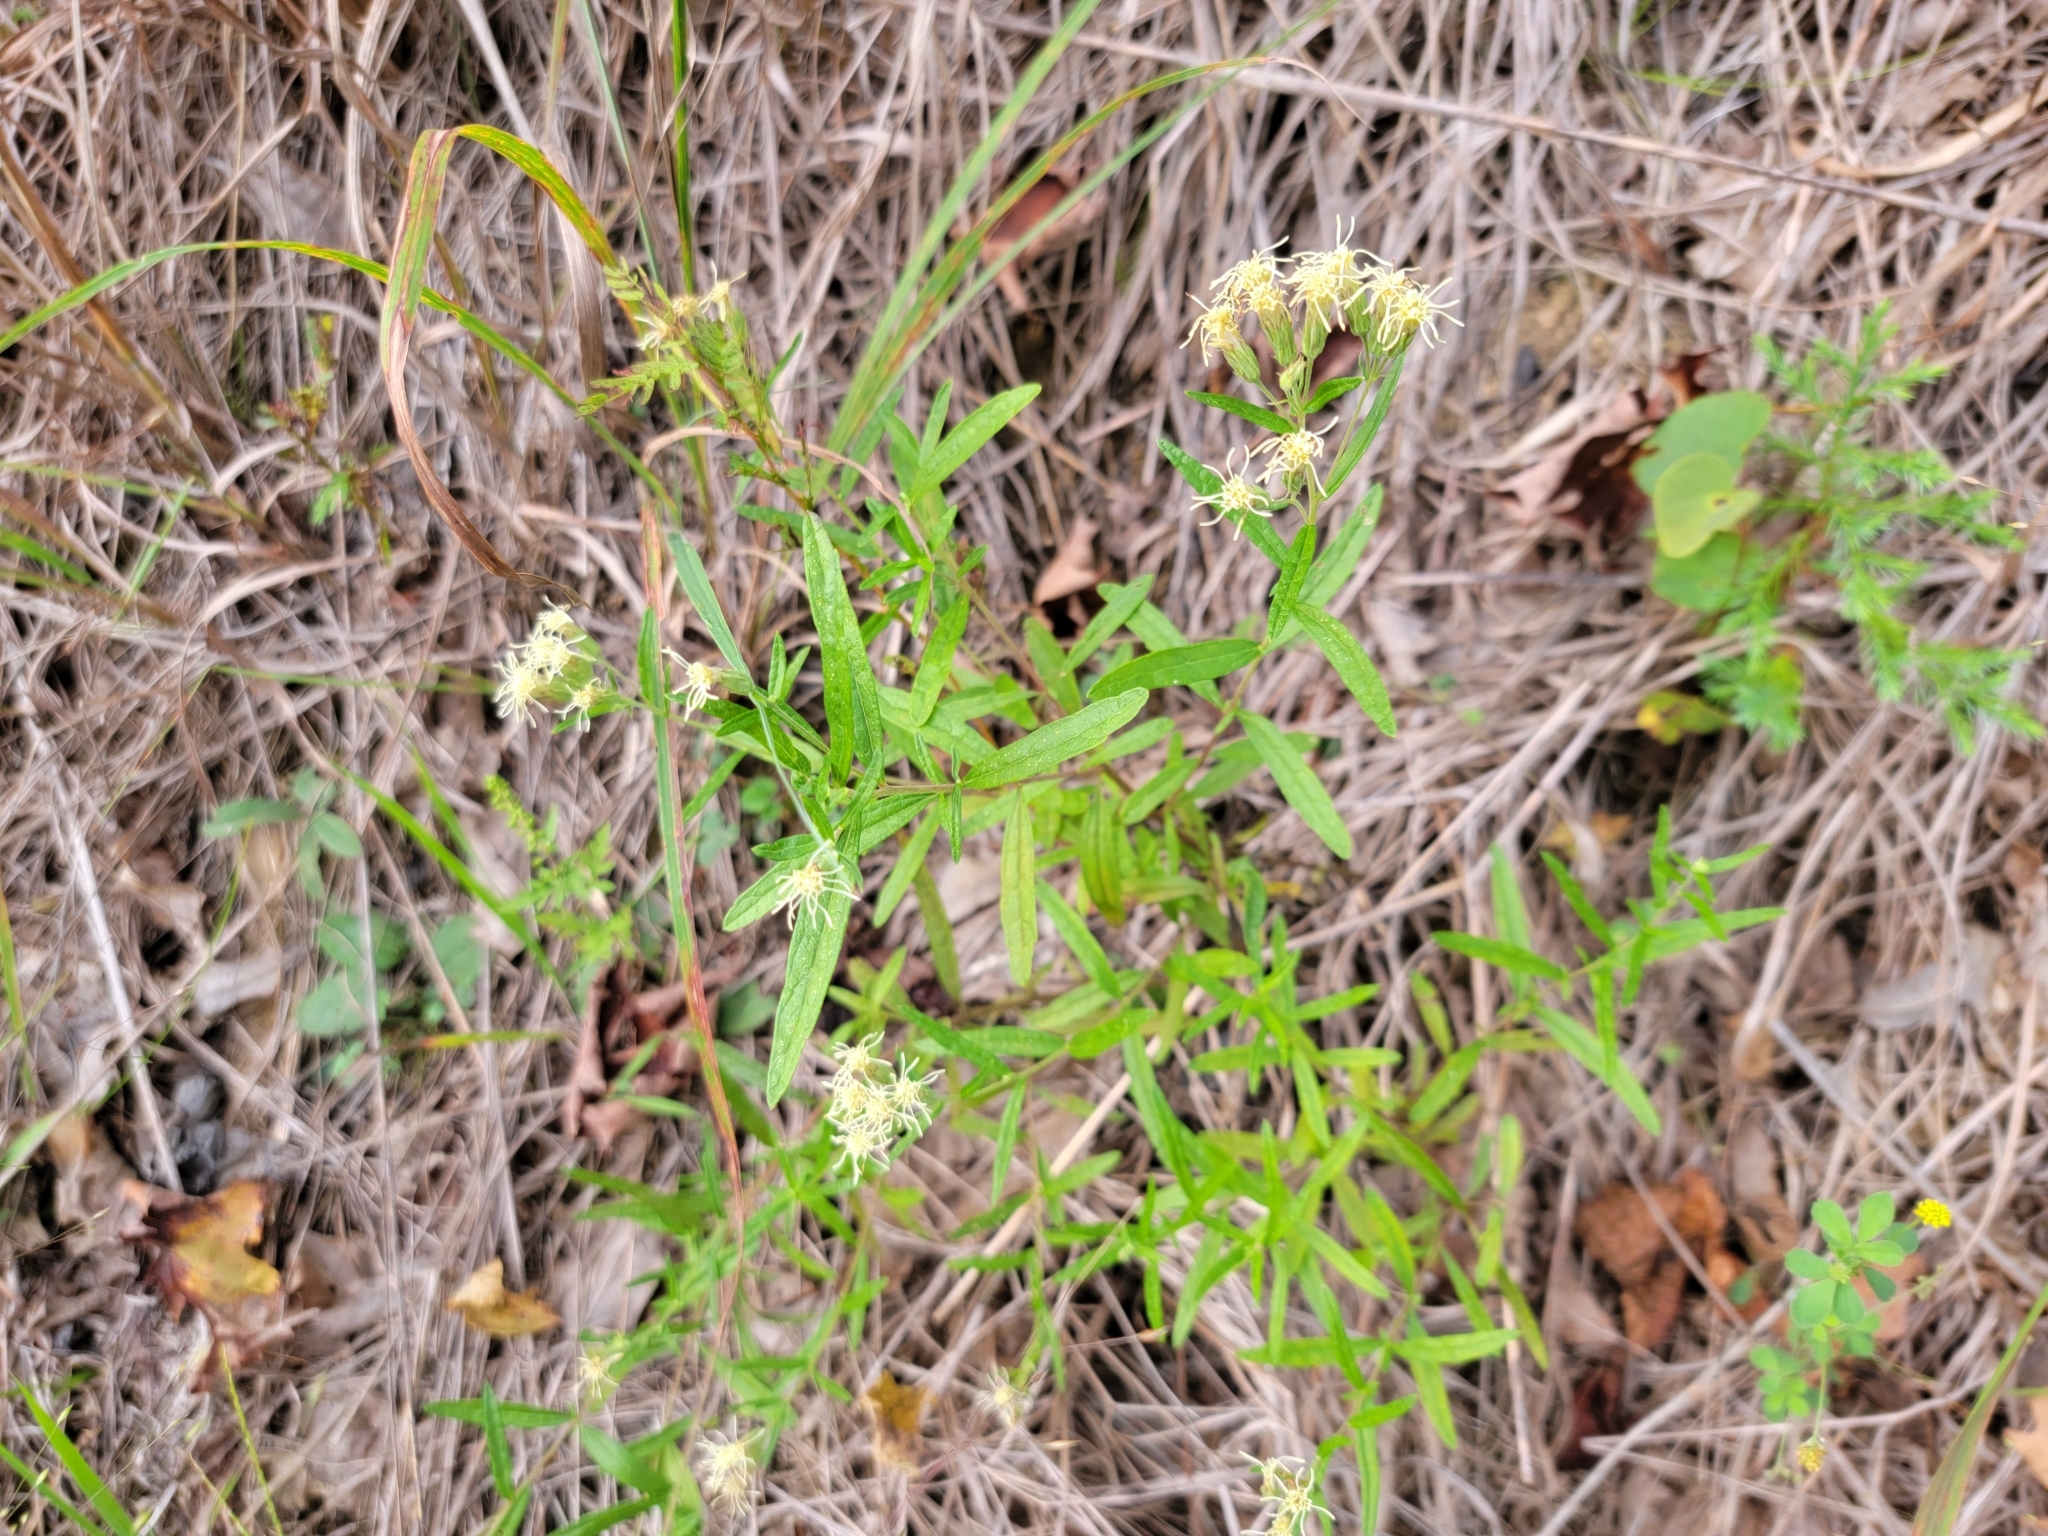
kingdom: Plantae
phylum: Tracheophyta
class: Magnoliopsida
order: Asterales
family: Asteraceae
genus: Brickellia
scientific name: Brickellia eupatorioides
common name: False boneset
